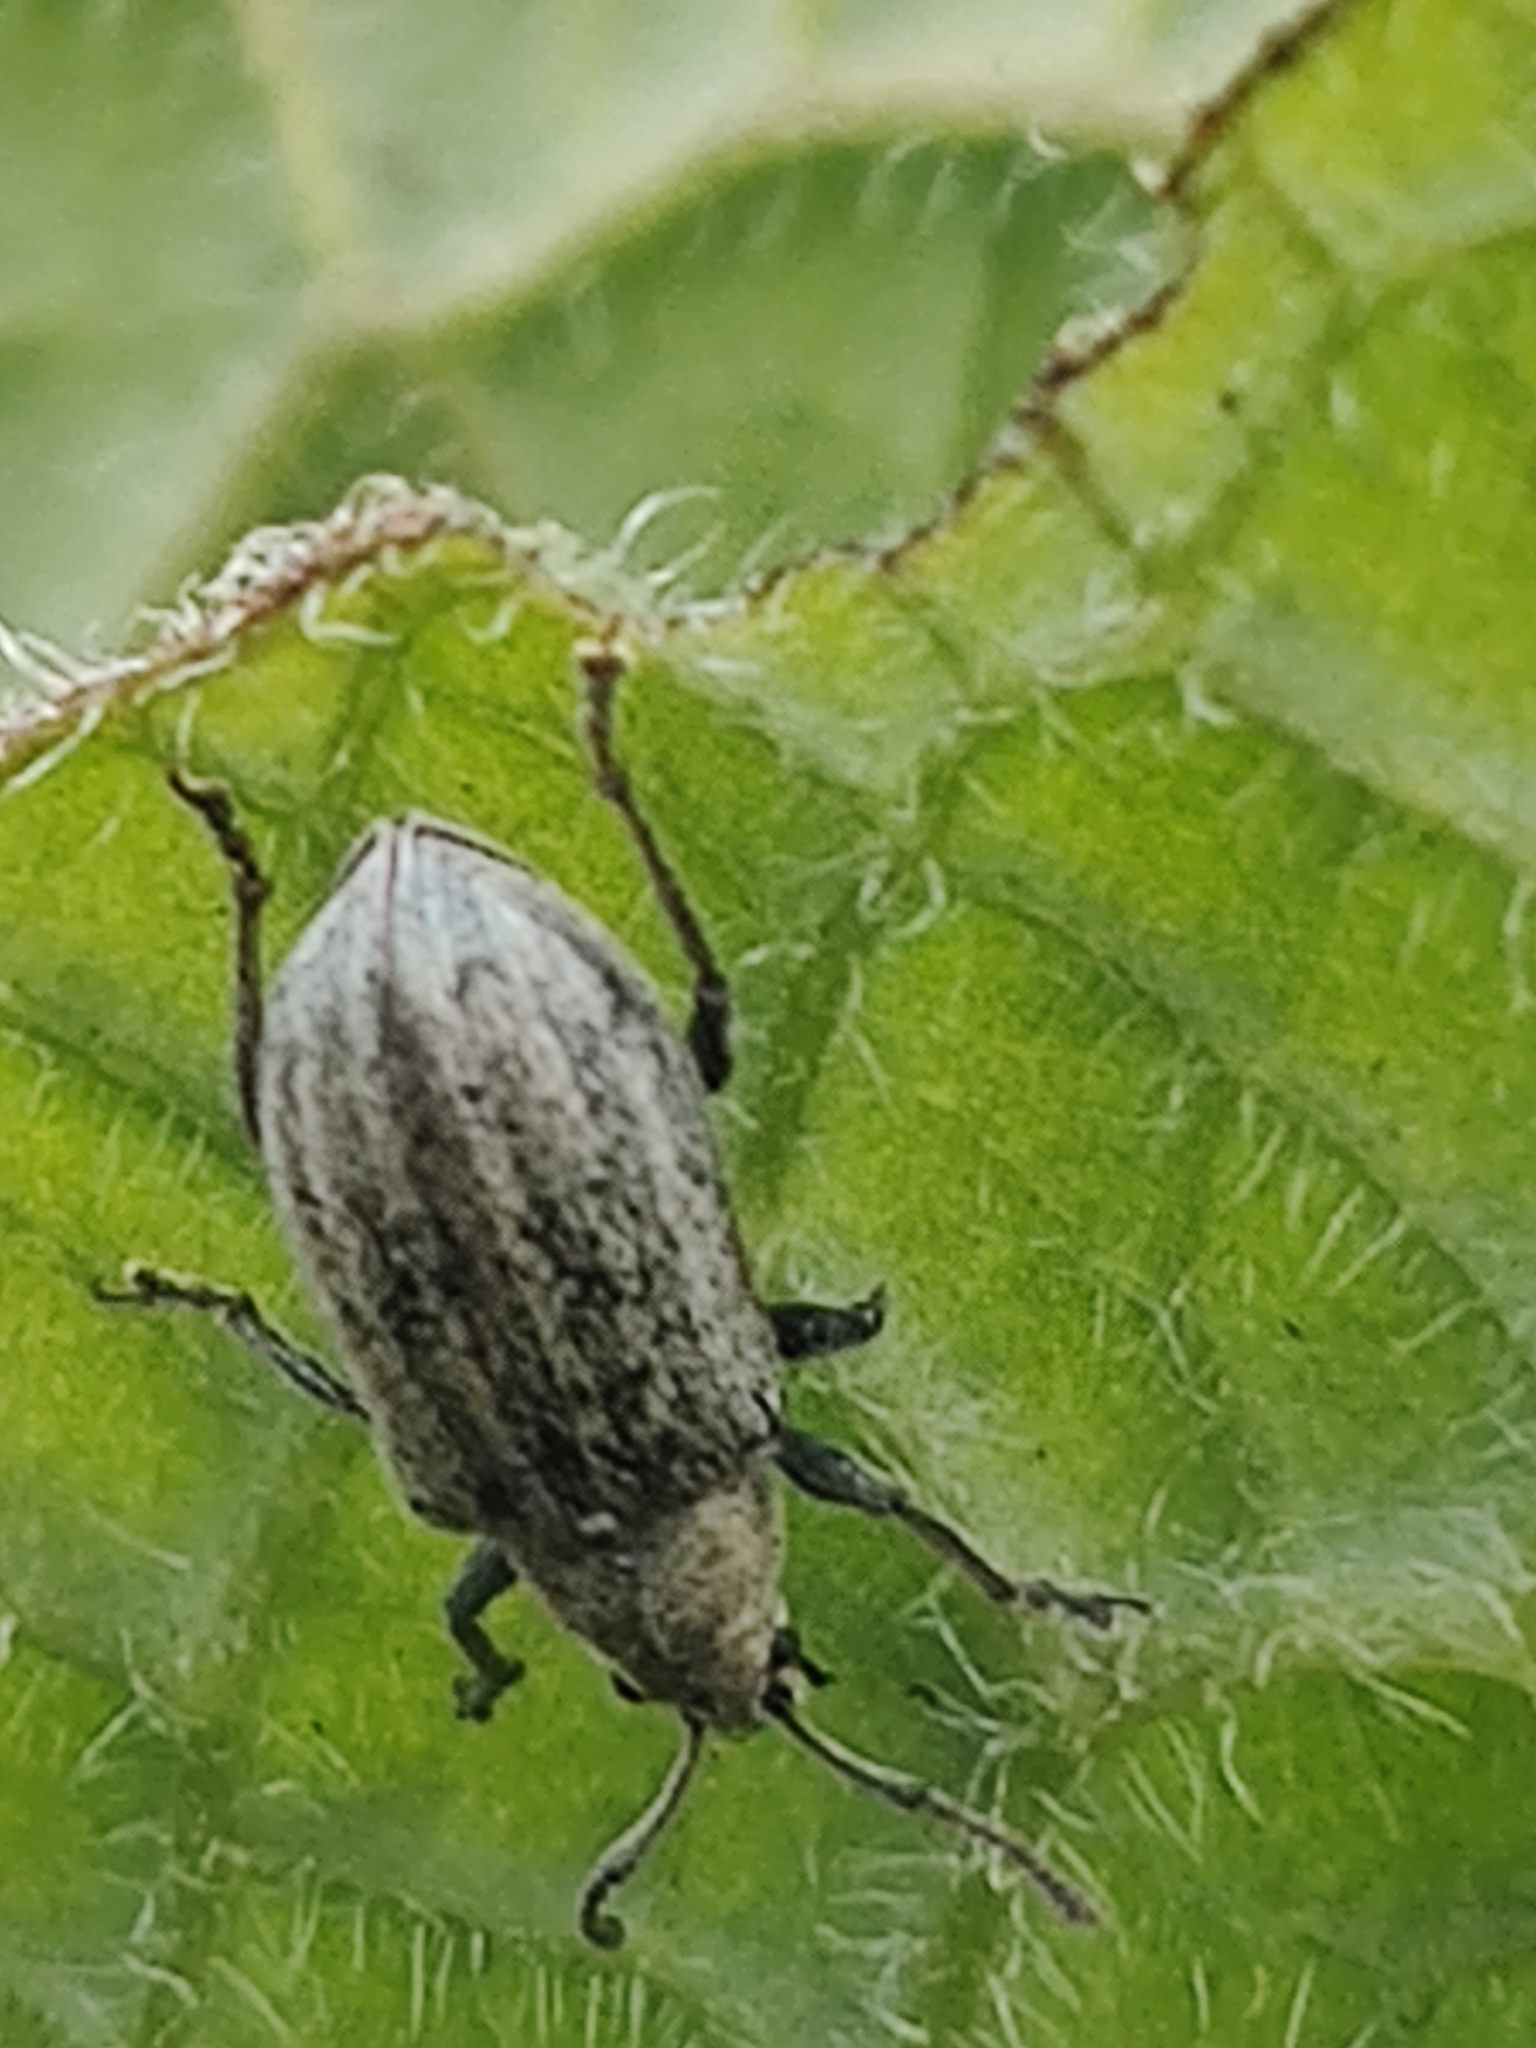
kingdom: Animalia
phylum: Arthropoda
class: Insecta
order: Coleoptera
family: Curculionidae
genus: Phyllobius
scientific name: Phyllobius pyri
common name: Common leaf weevil
